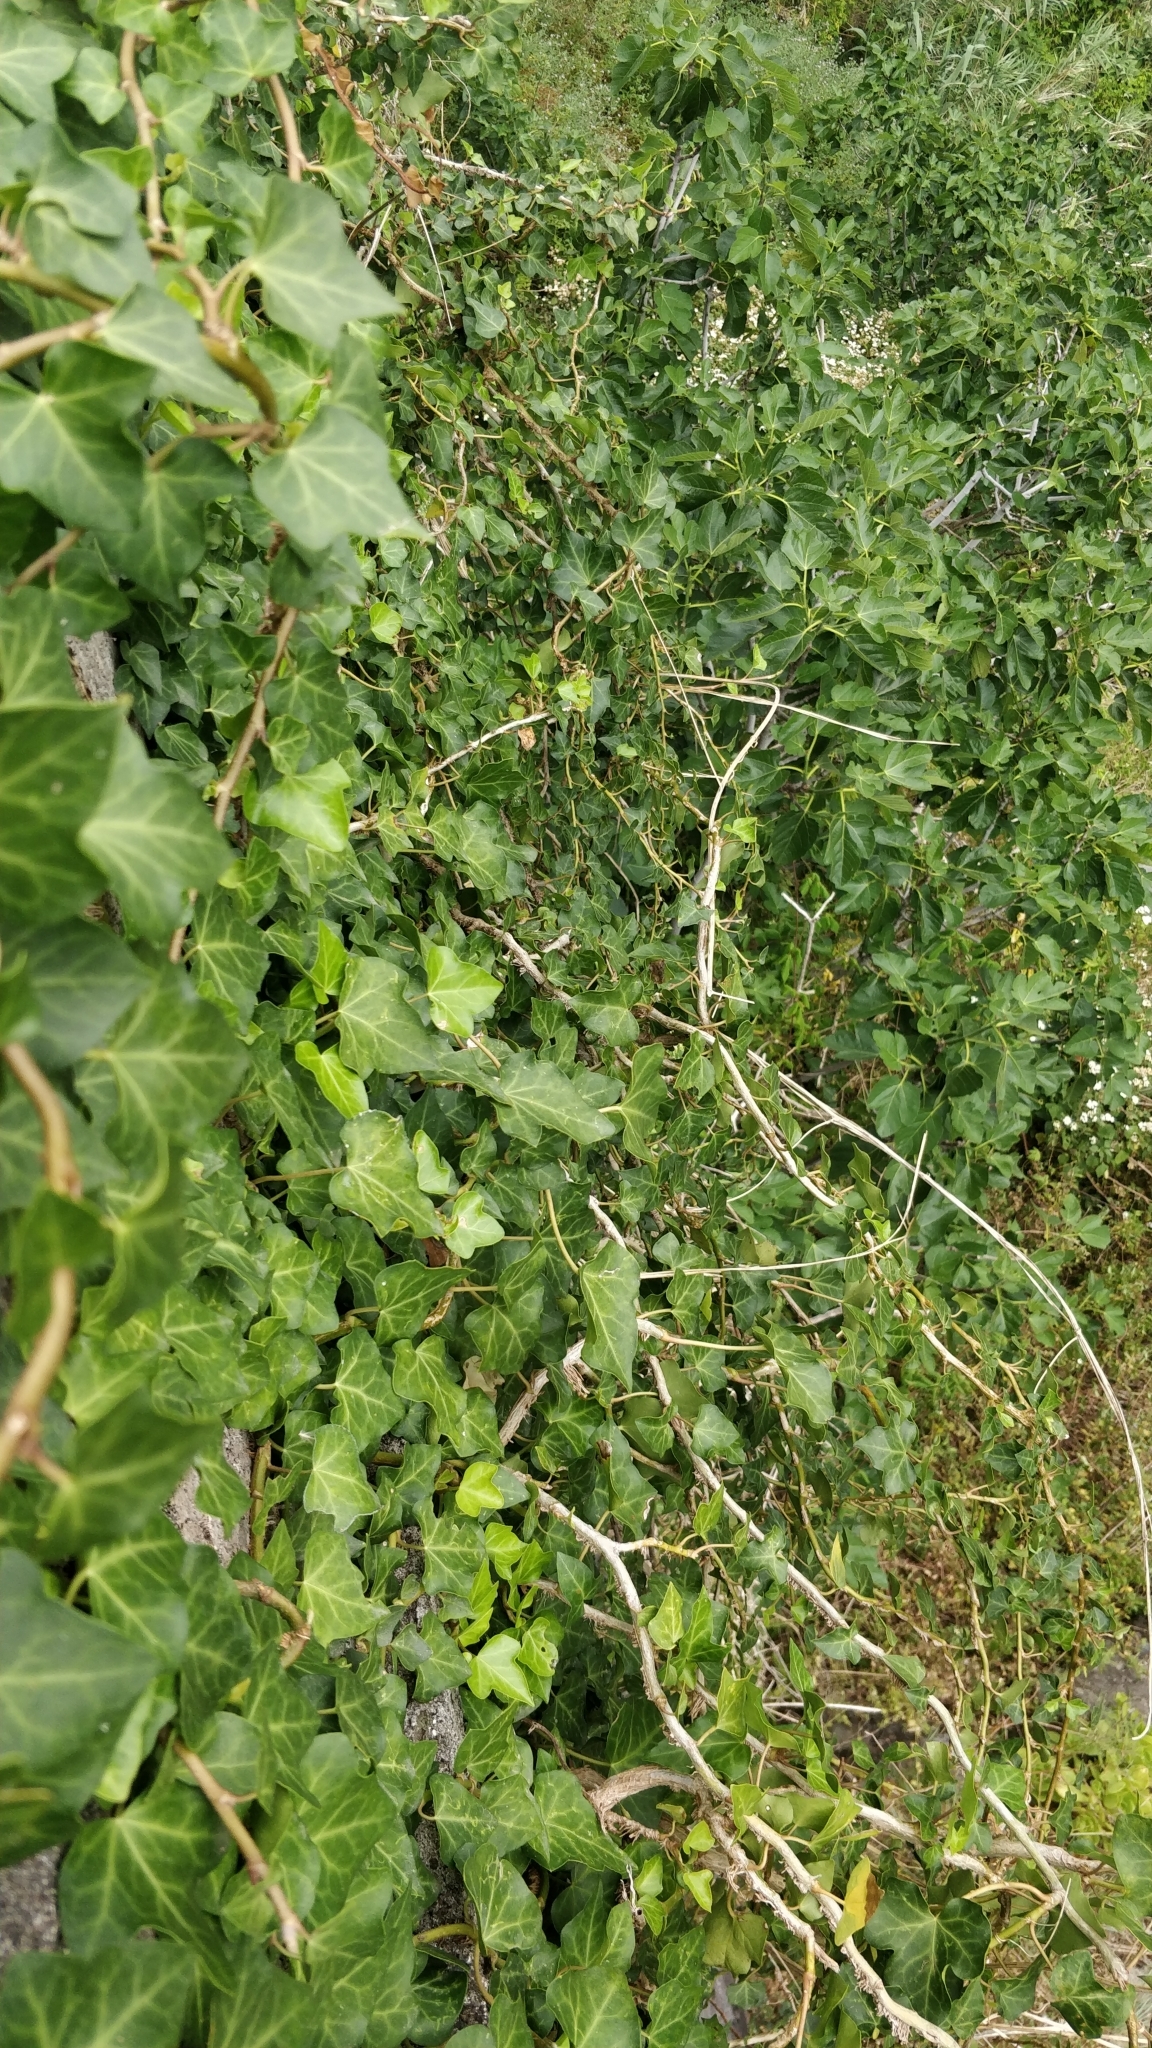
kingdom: Plantae
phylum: Tracheophyta
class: Magnoliopsida
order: Apiales
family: Araliaceae
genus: Hedera
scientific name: Hedera maderensis
